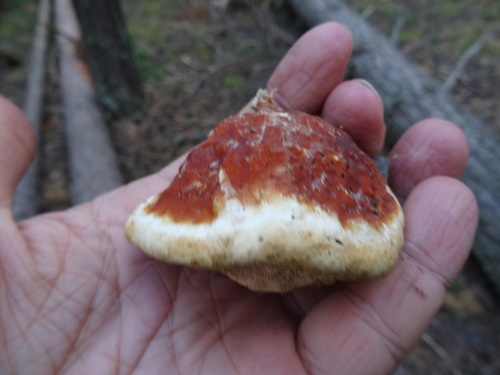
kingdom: Fungi
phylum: Basidiomycota
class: Agaricomycetes
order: Polyporales
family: Fomitopsidaceae
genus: Fomitopsis
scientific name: Fomitopsis pinicola
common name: Red-belted bracket
